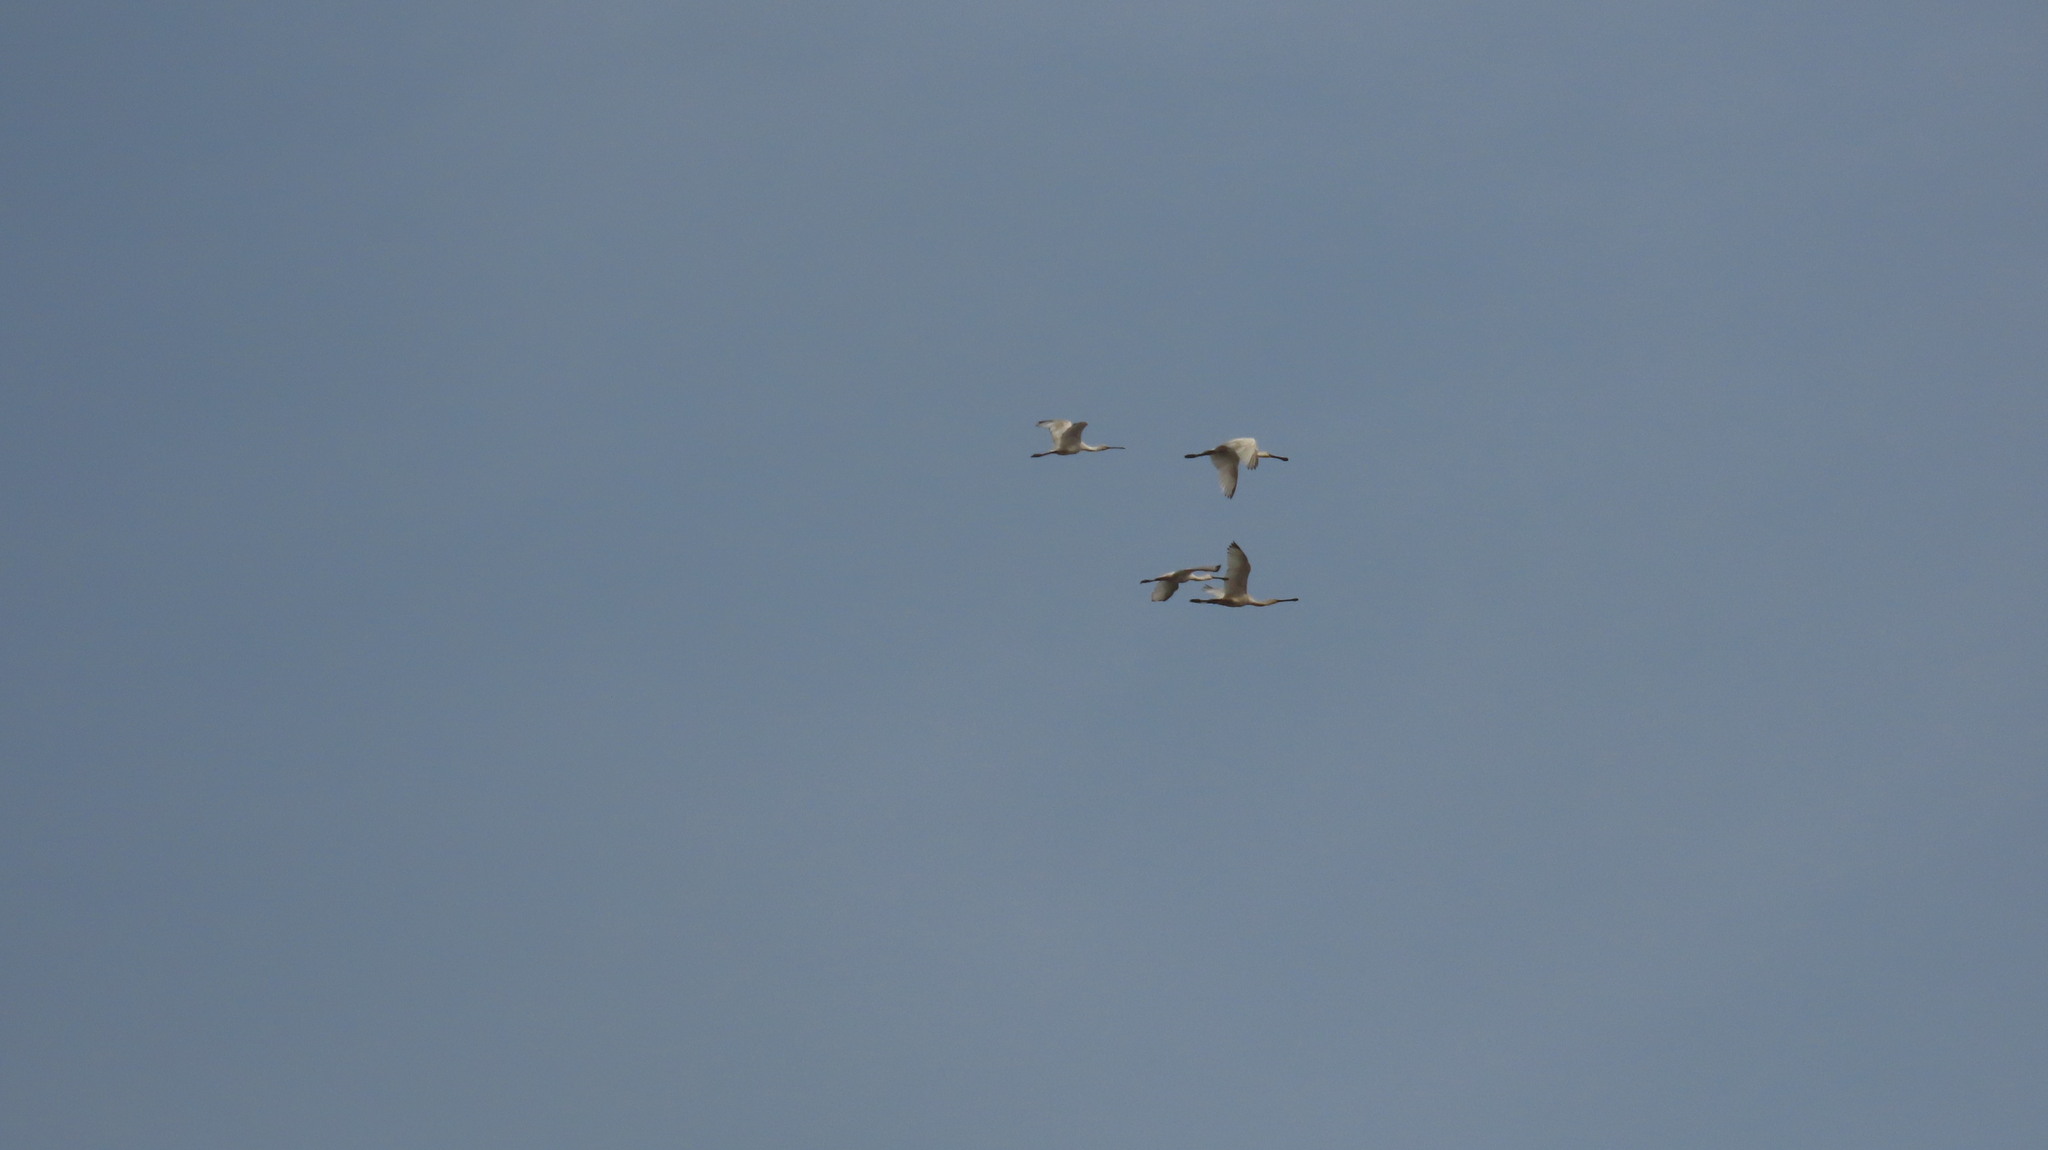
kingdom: Animalia
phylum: Chordata
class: Aves
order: Pelecaniformes
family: Threskiornithidae
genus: Platalea
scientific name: Platalea leucorodia
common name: Eurasian spoonbill
